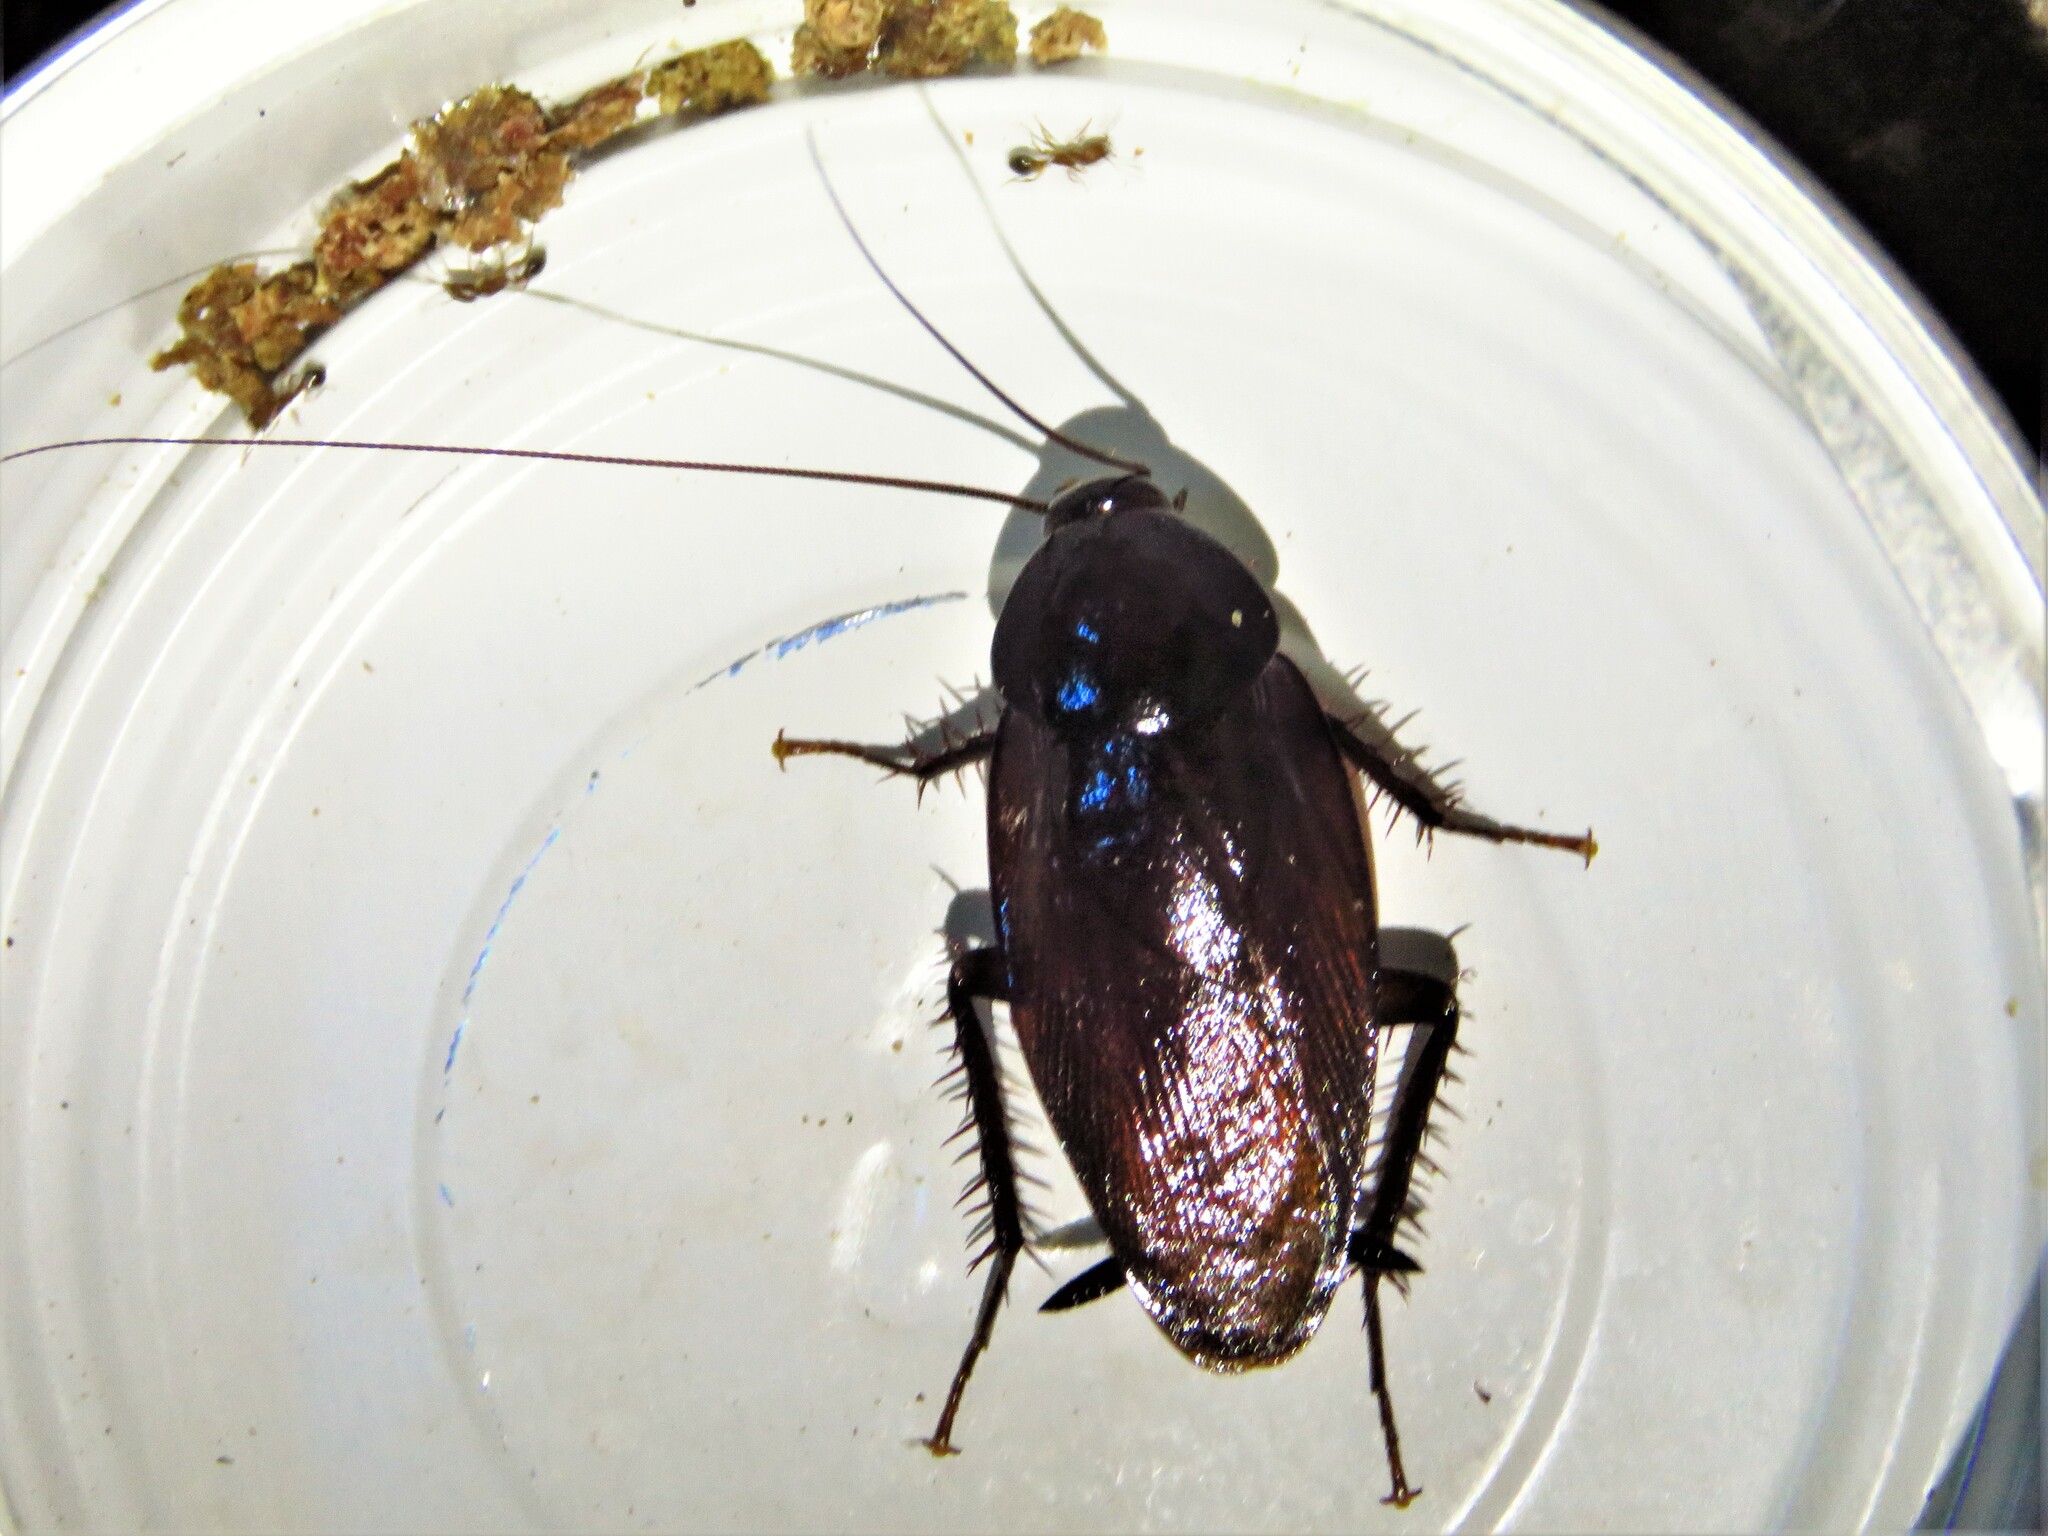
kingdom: Animalia
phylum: Arthropoda
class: Insecta
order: Blattodea
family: Blattidae
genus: Periplaneta
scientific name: Periplaneta fuliginosa
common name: Smokeybrown cockroad
